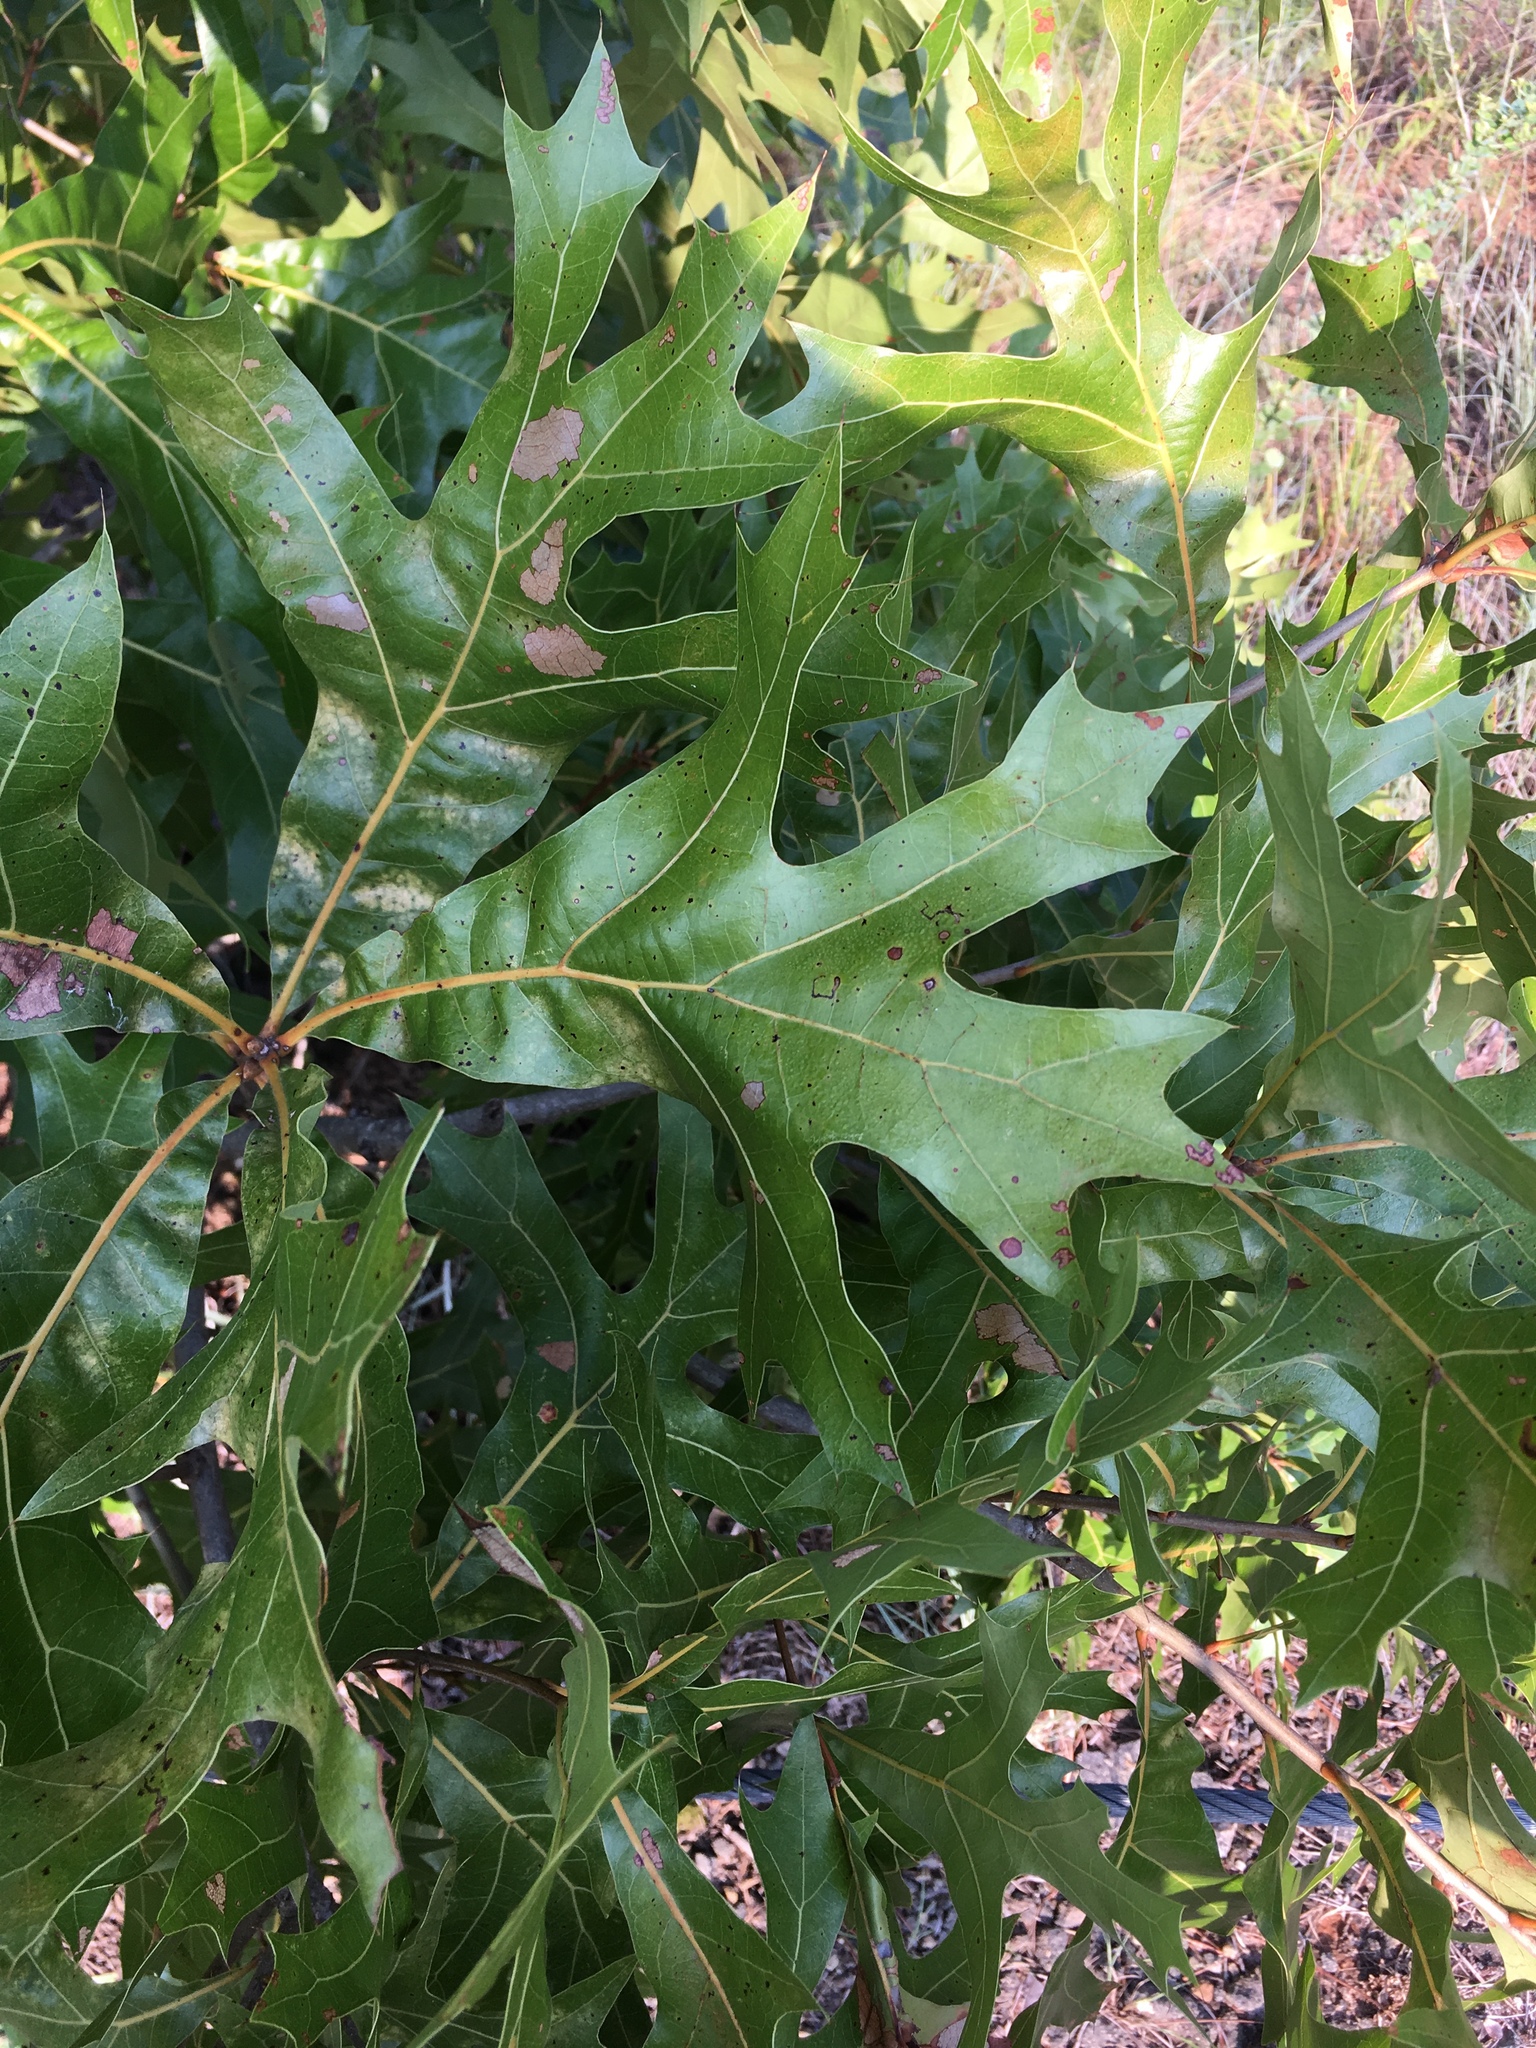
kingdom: Plantae
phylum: Tracheophyta
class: Magnoliopsida
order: Fagales
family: Fagaceae
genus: Quercus
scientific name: Quercus laevis
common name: Turkey oak
